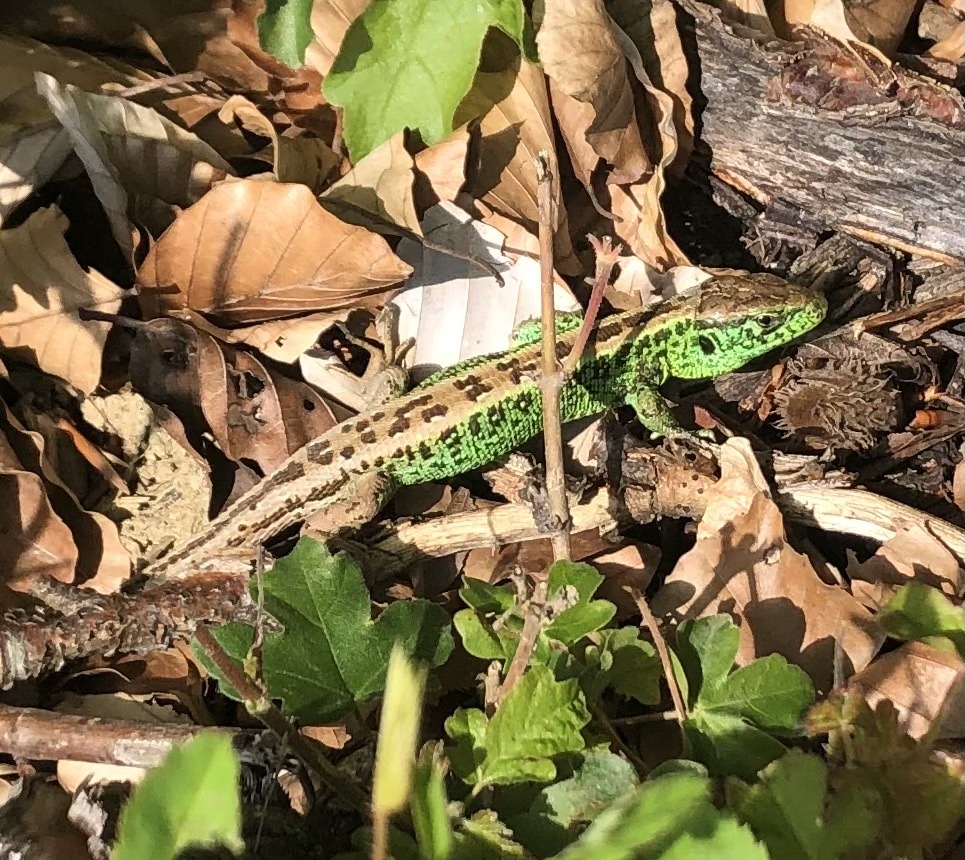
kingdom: Animalia
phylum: Chordata
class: Squamata
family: Lacertidae
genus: Lacerta
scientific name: Lacerta agilis
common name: Sand lizard
